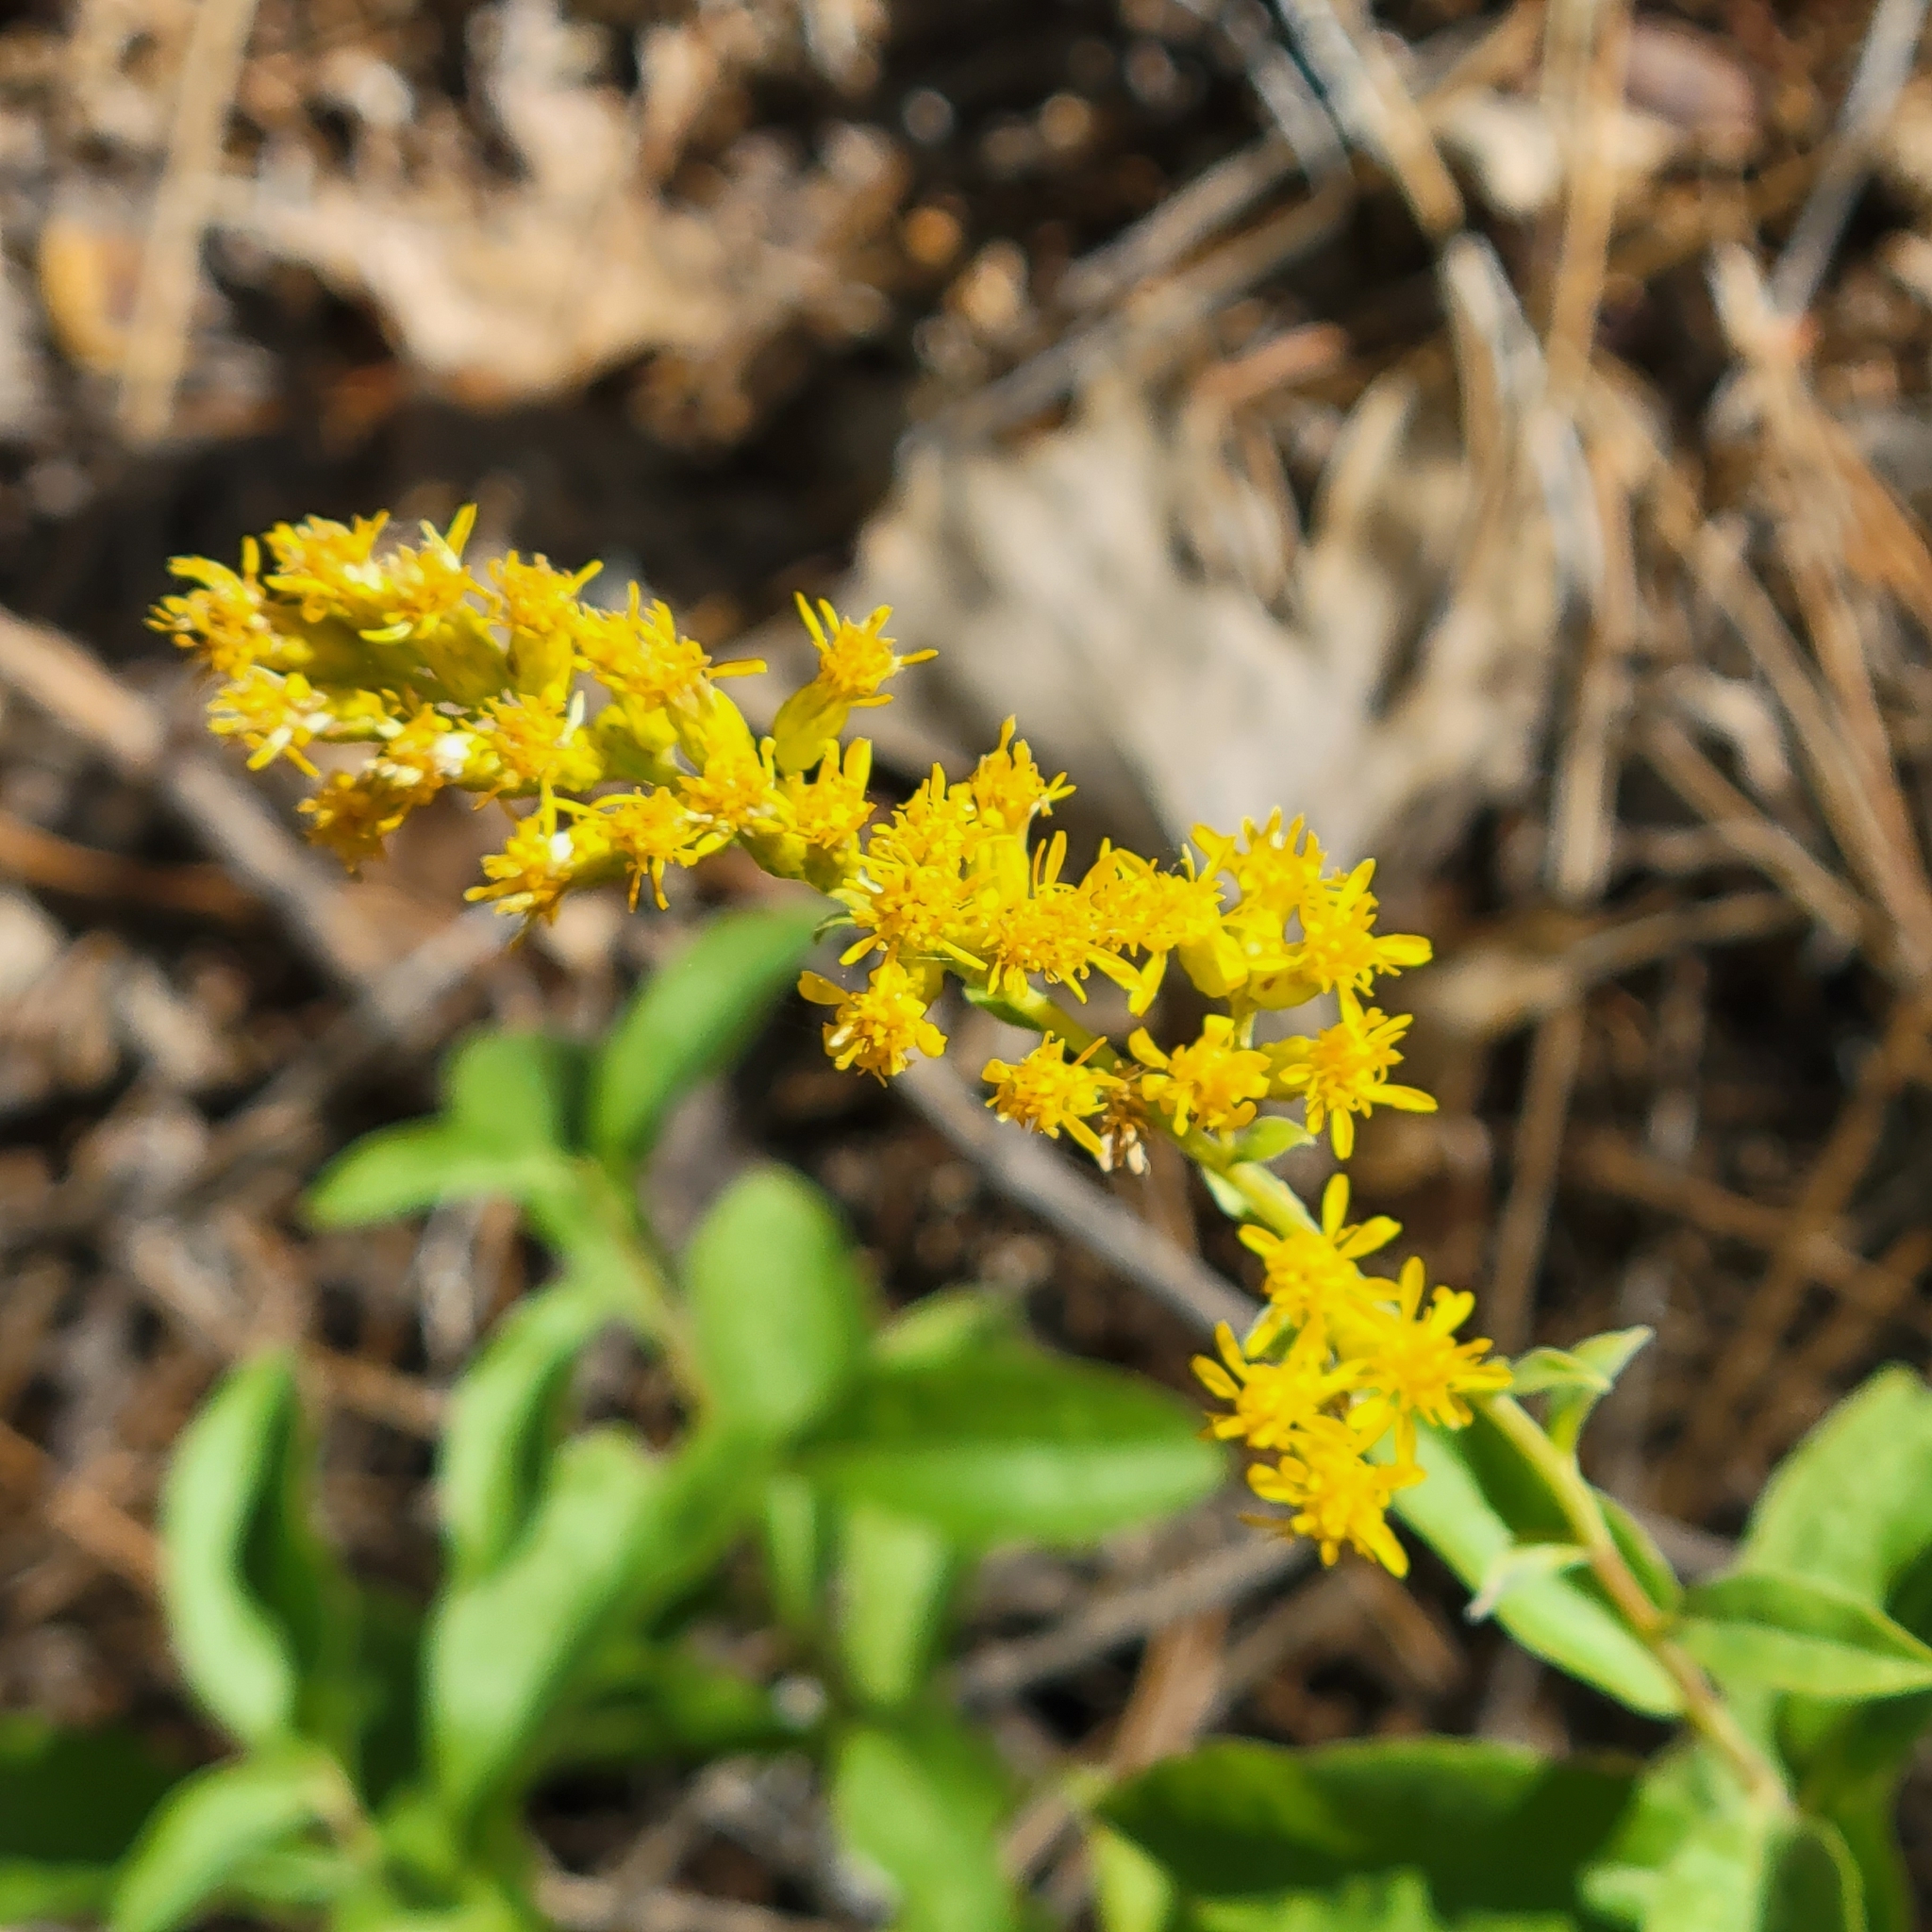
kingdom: Plantae
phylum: Tracheophyta
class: Magnoliopsida
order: Asterales
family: Asteraceae
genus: Solidago
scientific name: Solidago velutina
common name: Three-nerve goldenrod
